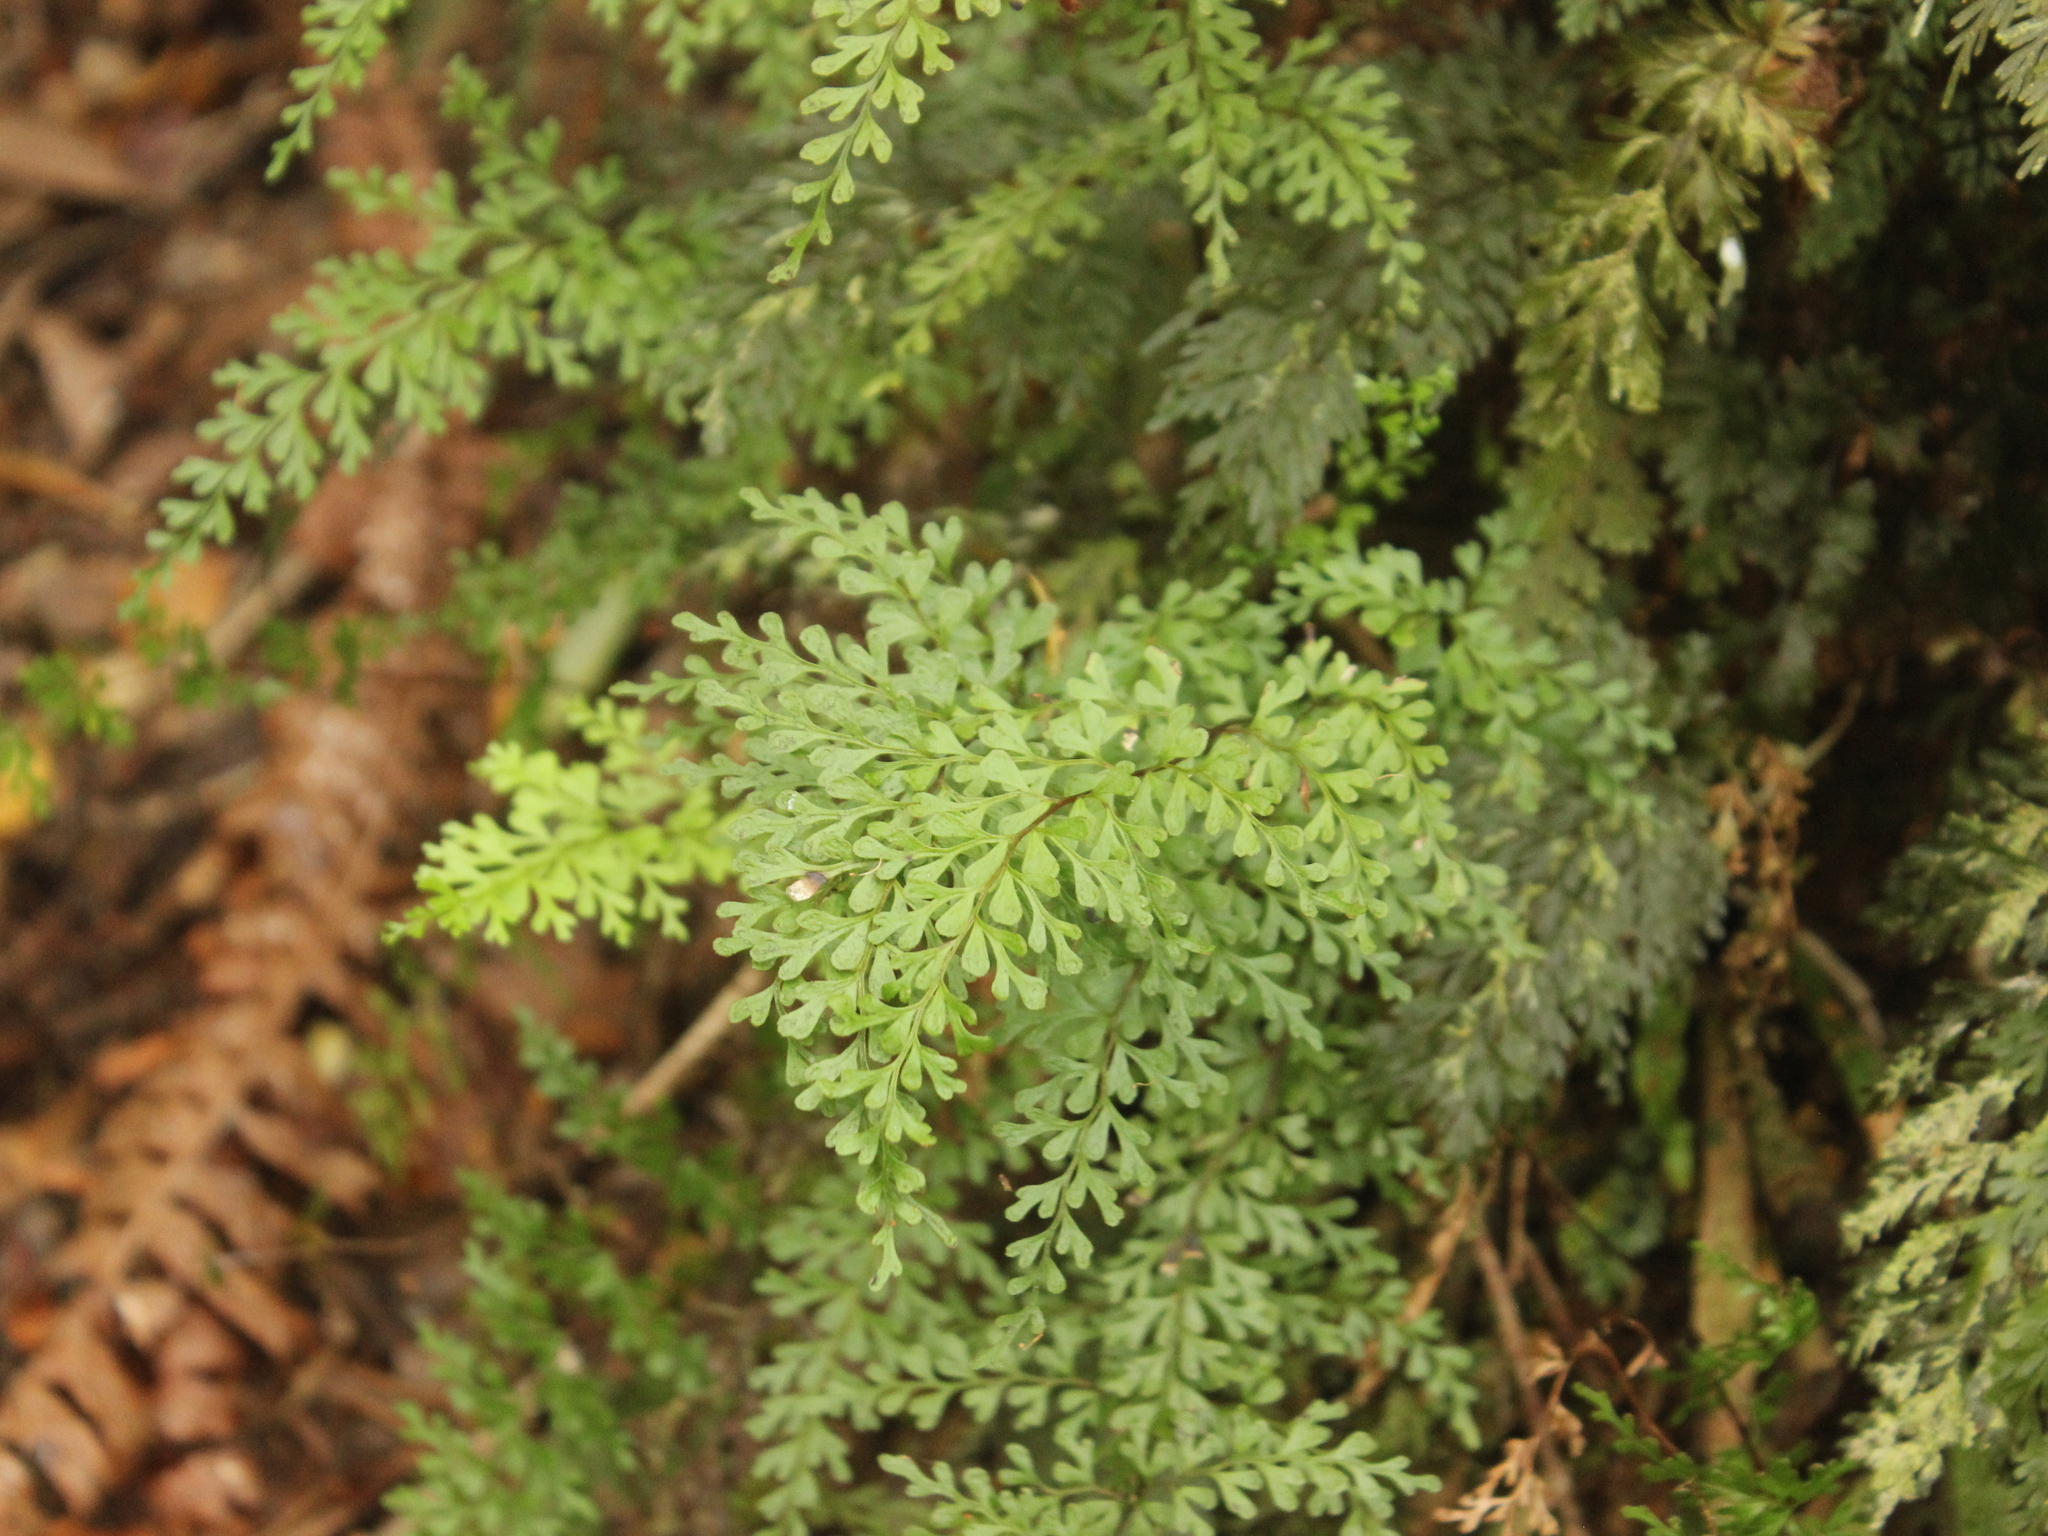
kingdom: Plantae
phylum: Tracheophyta
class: Polypodiopsida
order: Polypodiales
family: Lindsaeaceae
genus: Lindsaea
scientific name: Lindsaea trichomanoides
